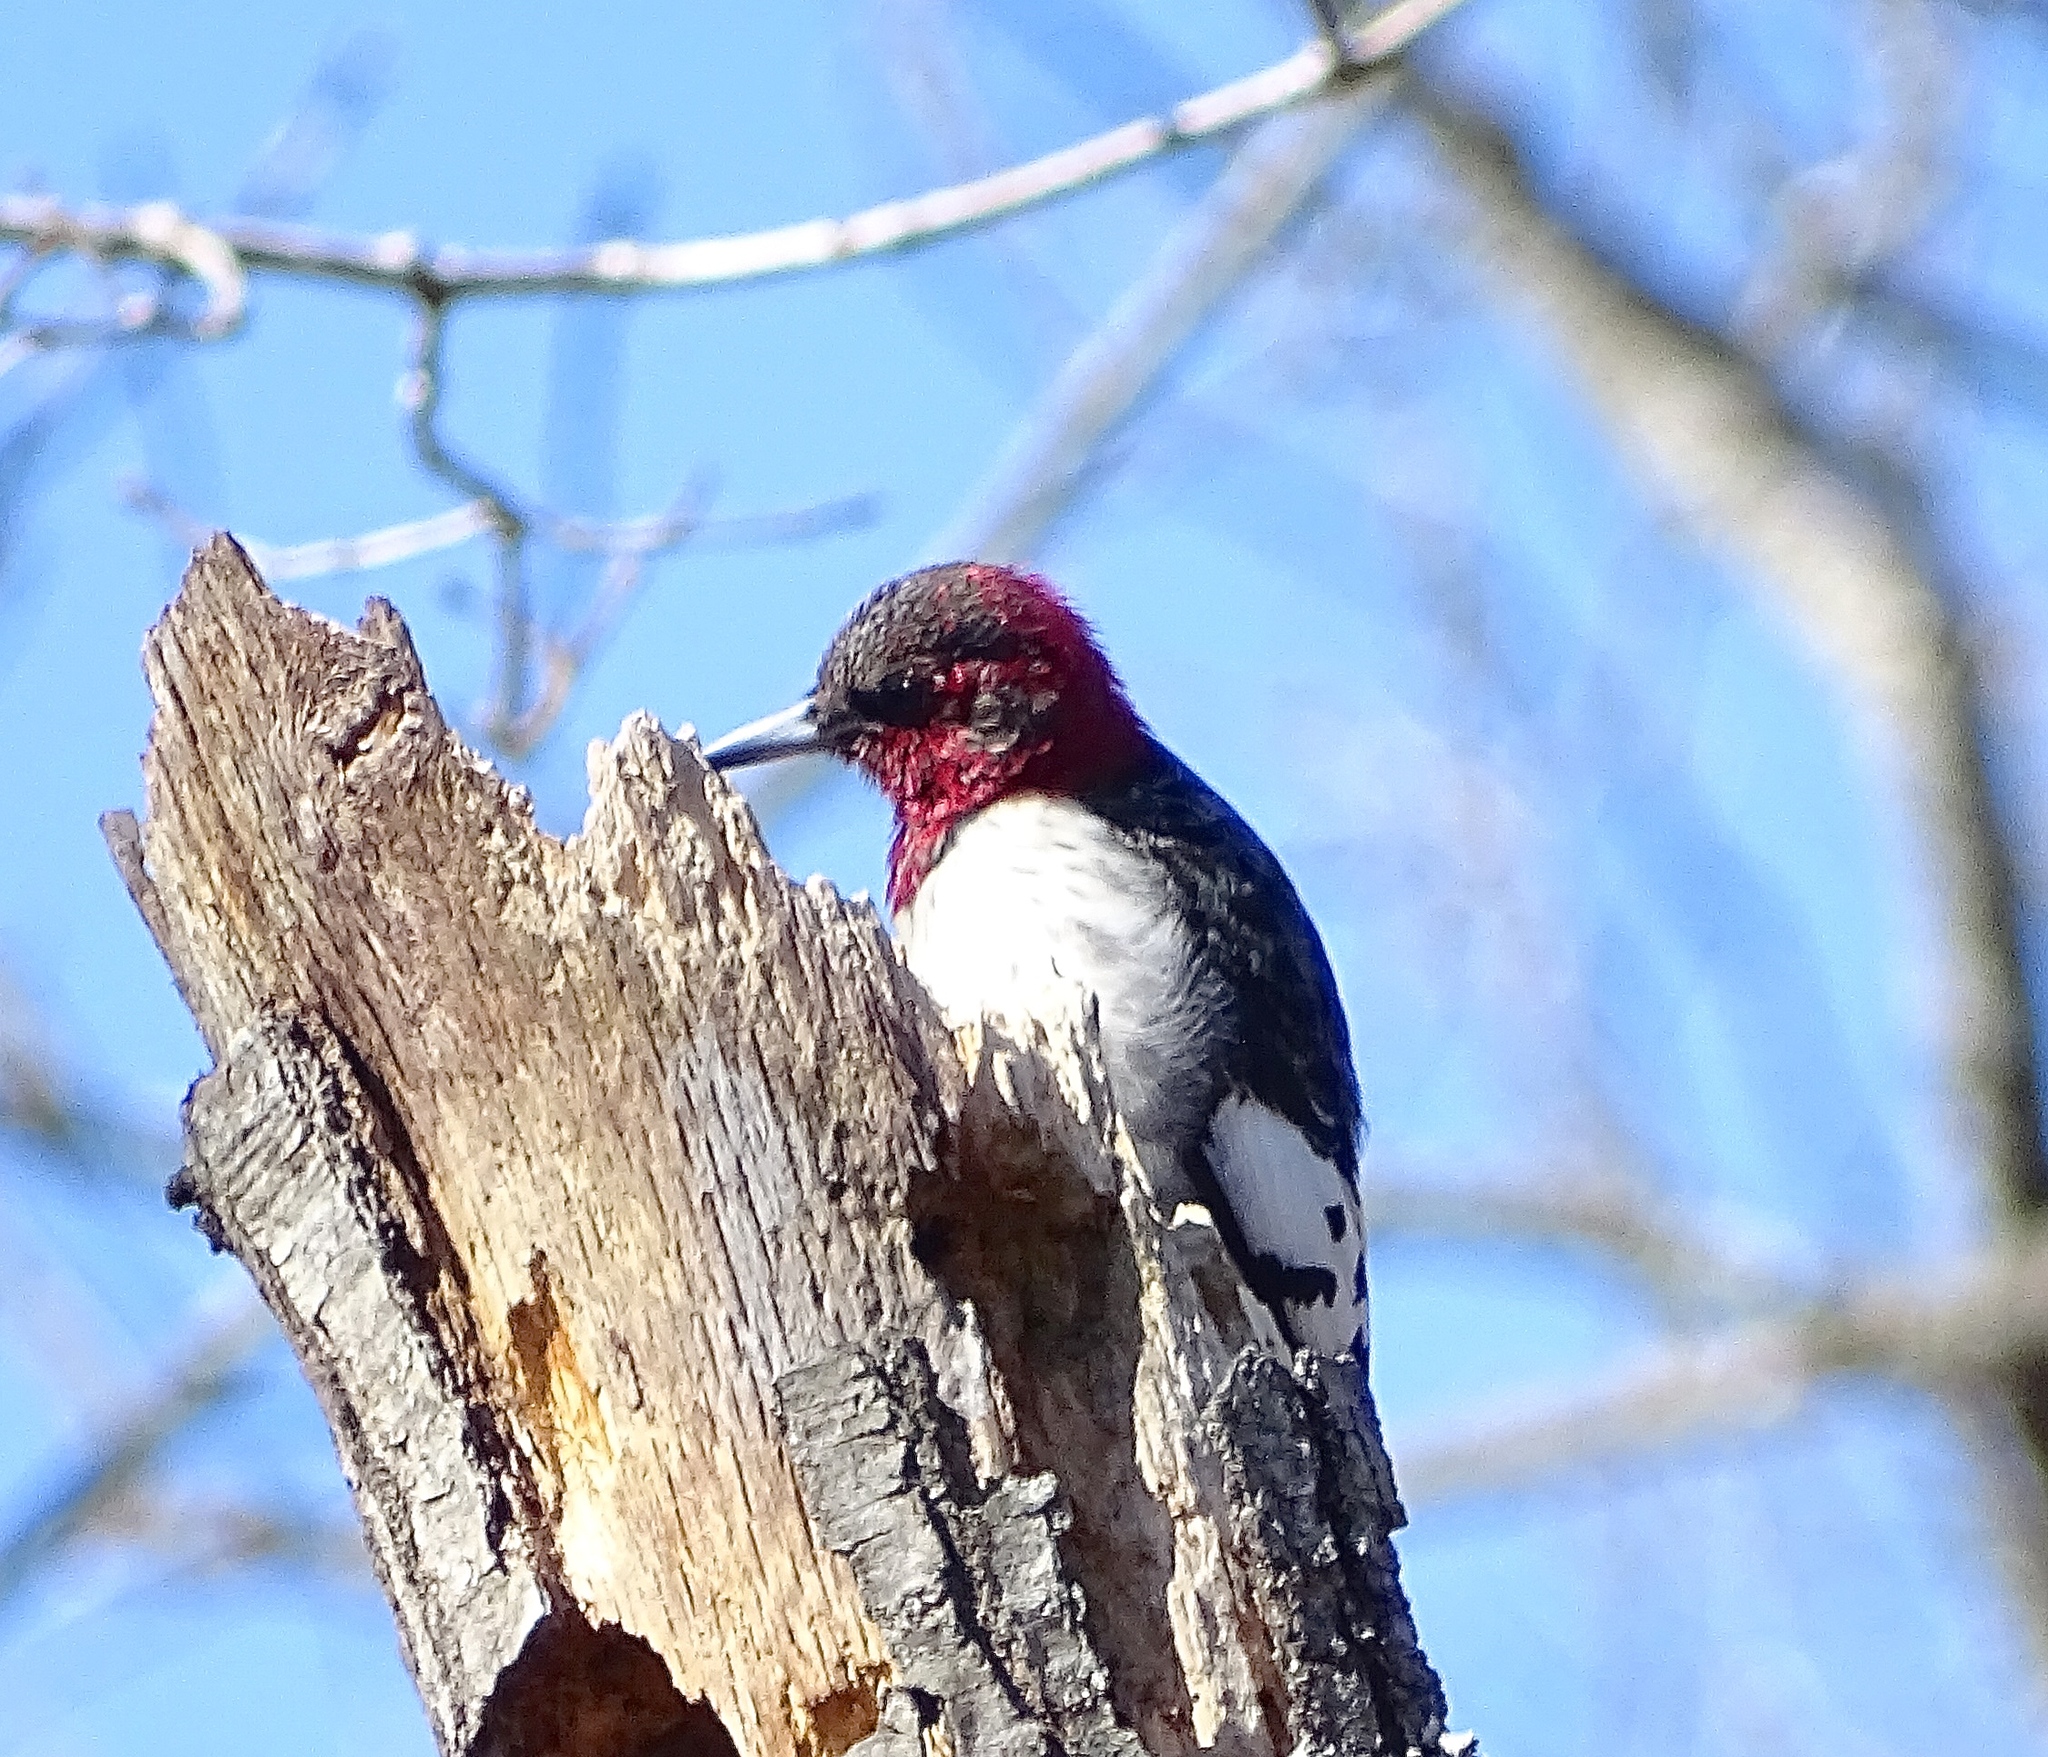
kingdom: Animalia
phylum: Chordata
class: Aves
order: Piciformes
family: Picidae
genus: Melanerpes
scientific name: Melanerpes erythrocephalus
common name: Red-headed woodpecker
